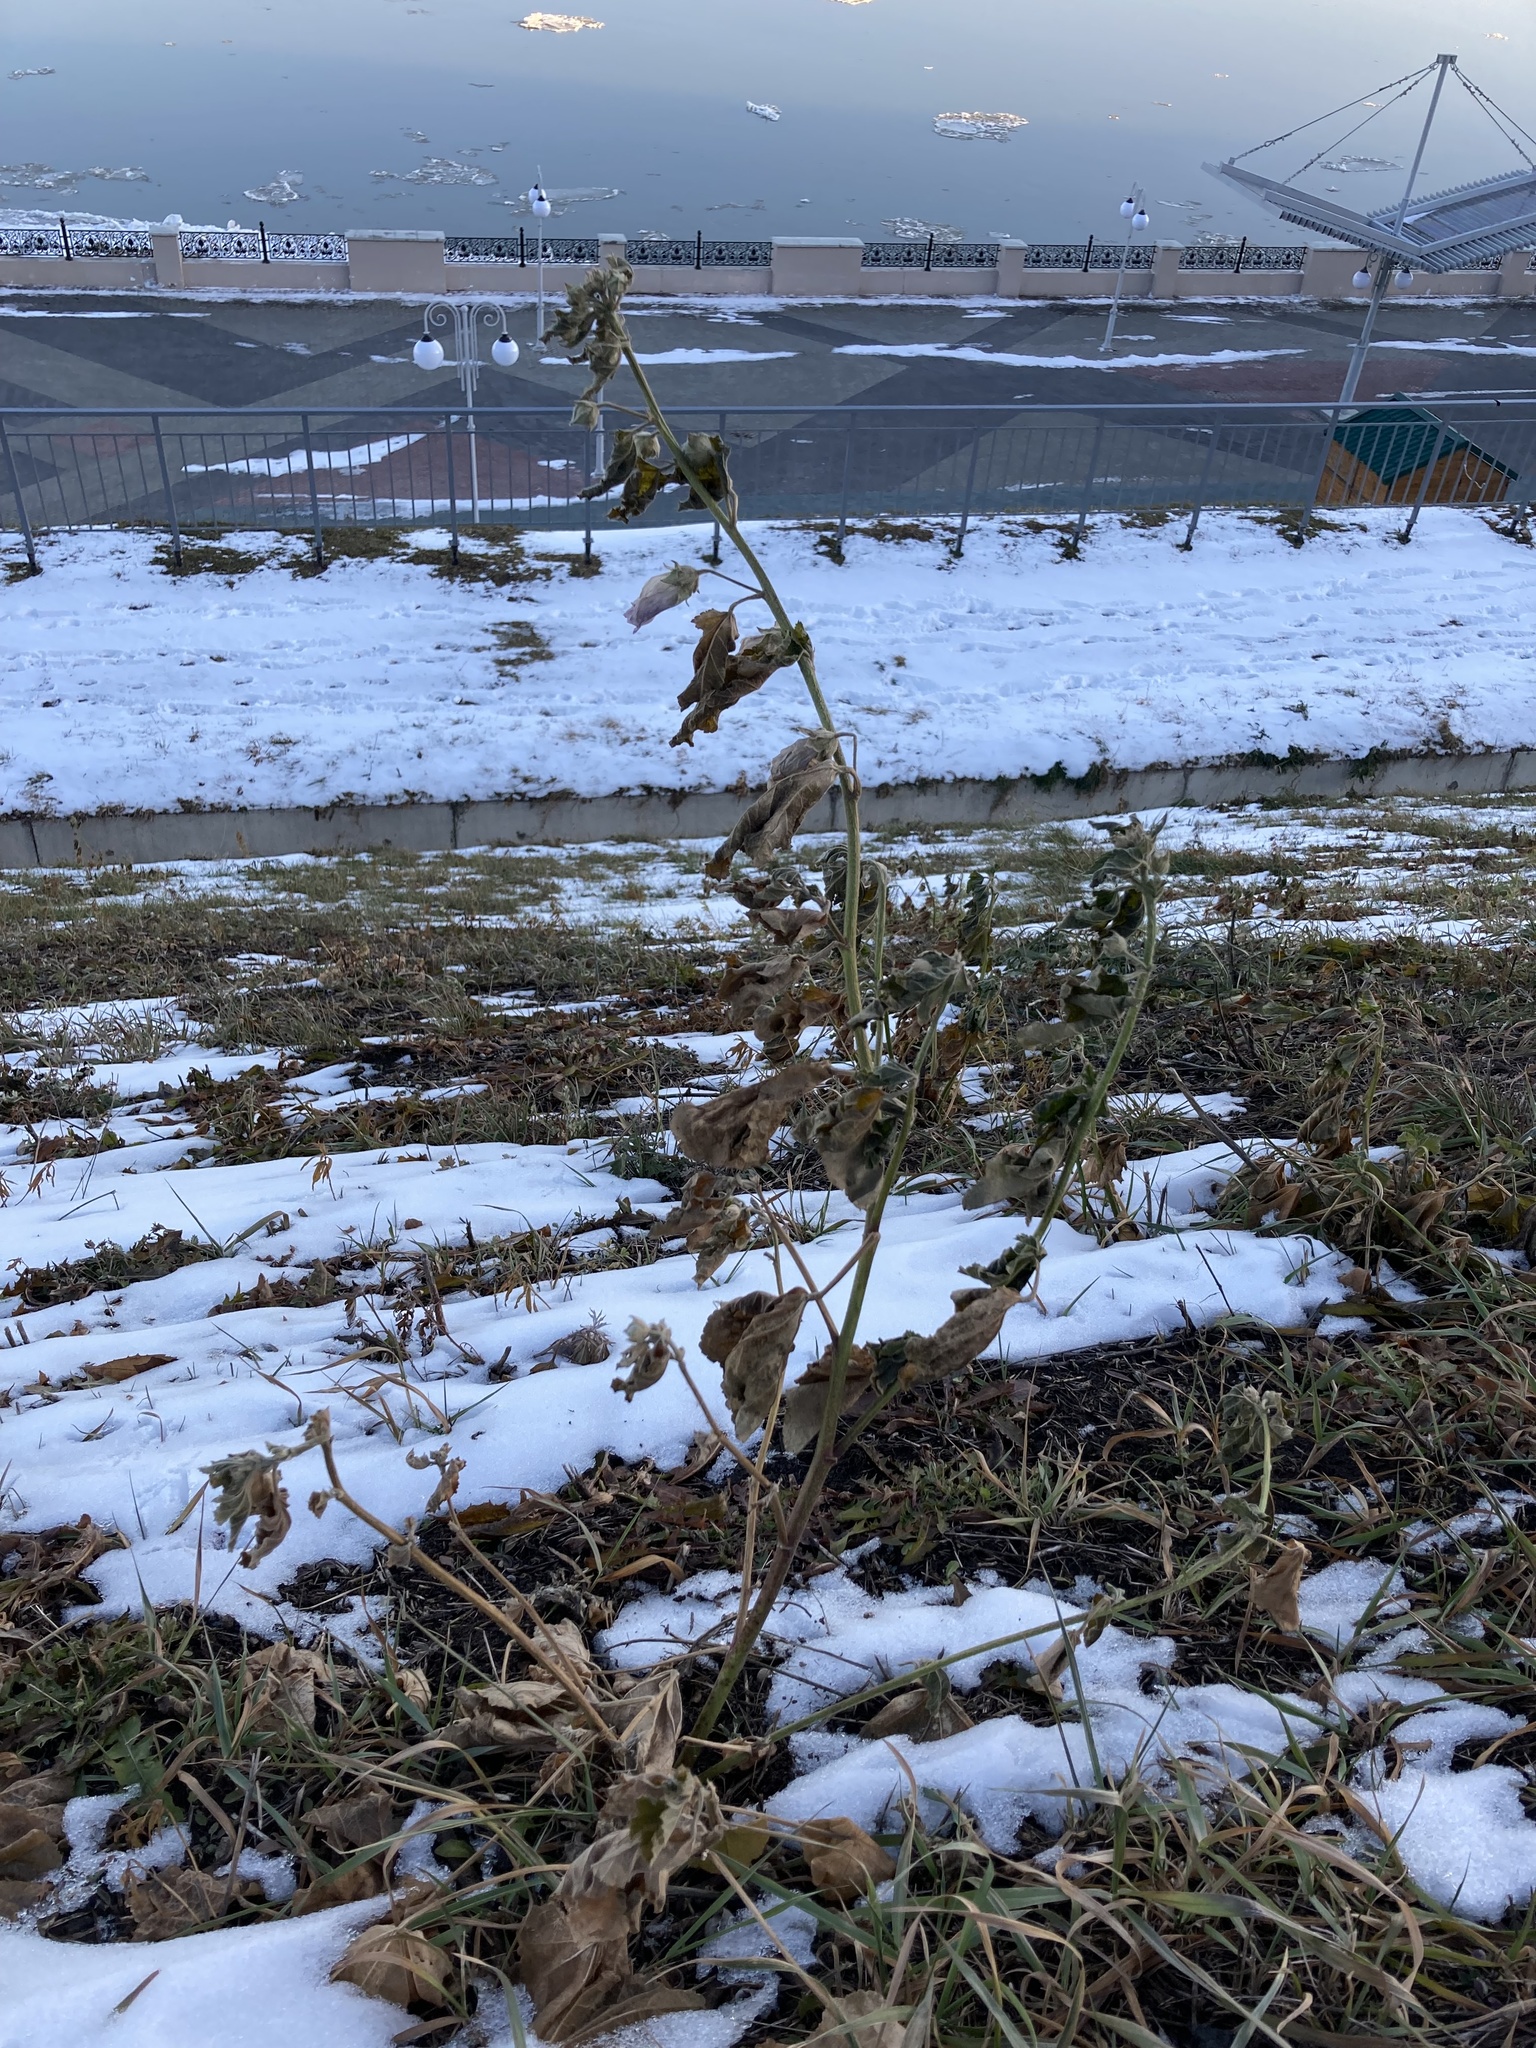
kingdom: Plantae
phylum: Tracheophyta
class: Magnoliopsida
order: Malvales
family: Malvaceae
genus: Malva
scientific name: Malva thuringiaca
